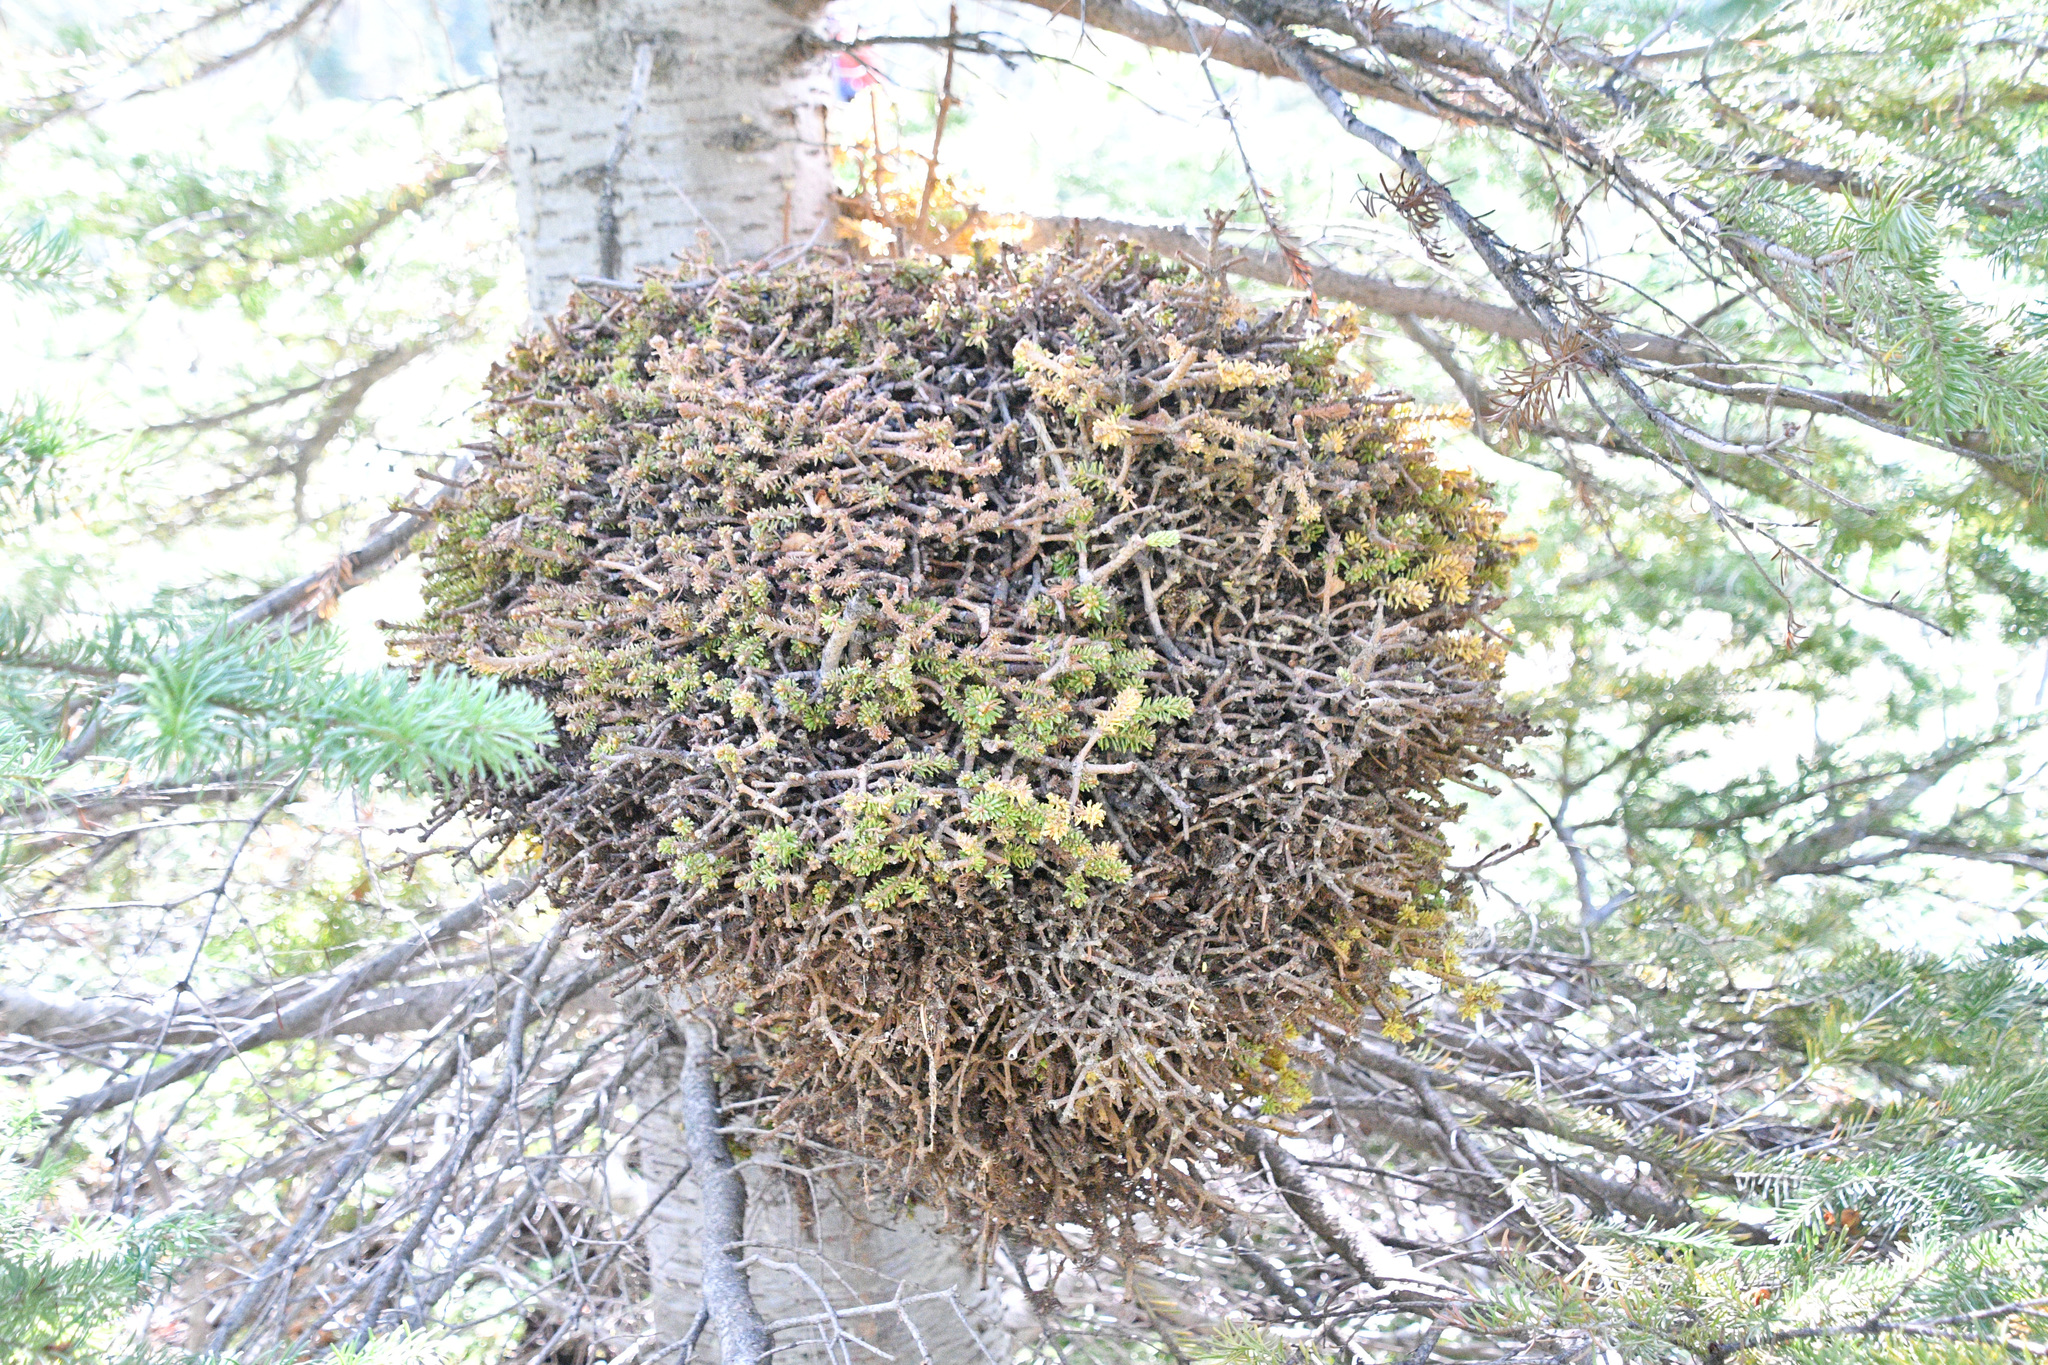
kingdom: Fungi
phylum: Basidiomycota
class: Pucciniomycetes
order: Pucciniales
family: Coleosporiaceae
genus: Chrysomyxa
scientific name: Chrysomyxa arctostaphyli
